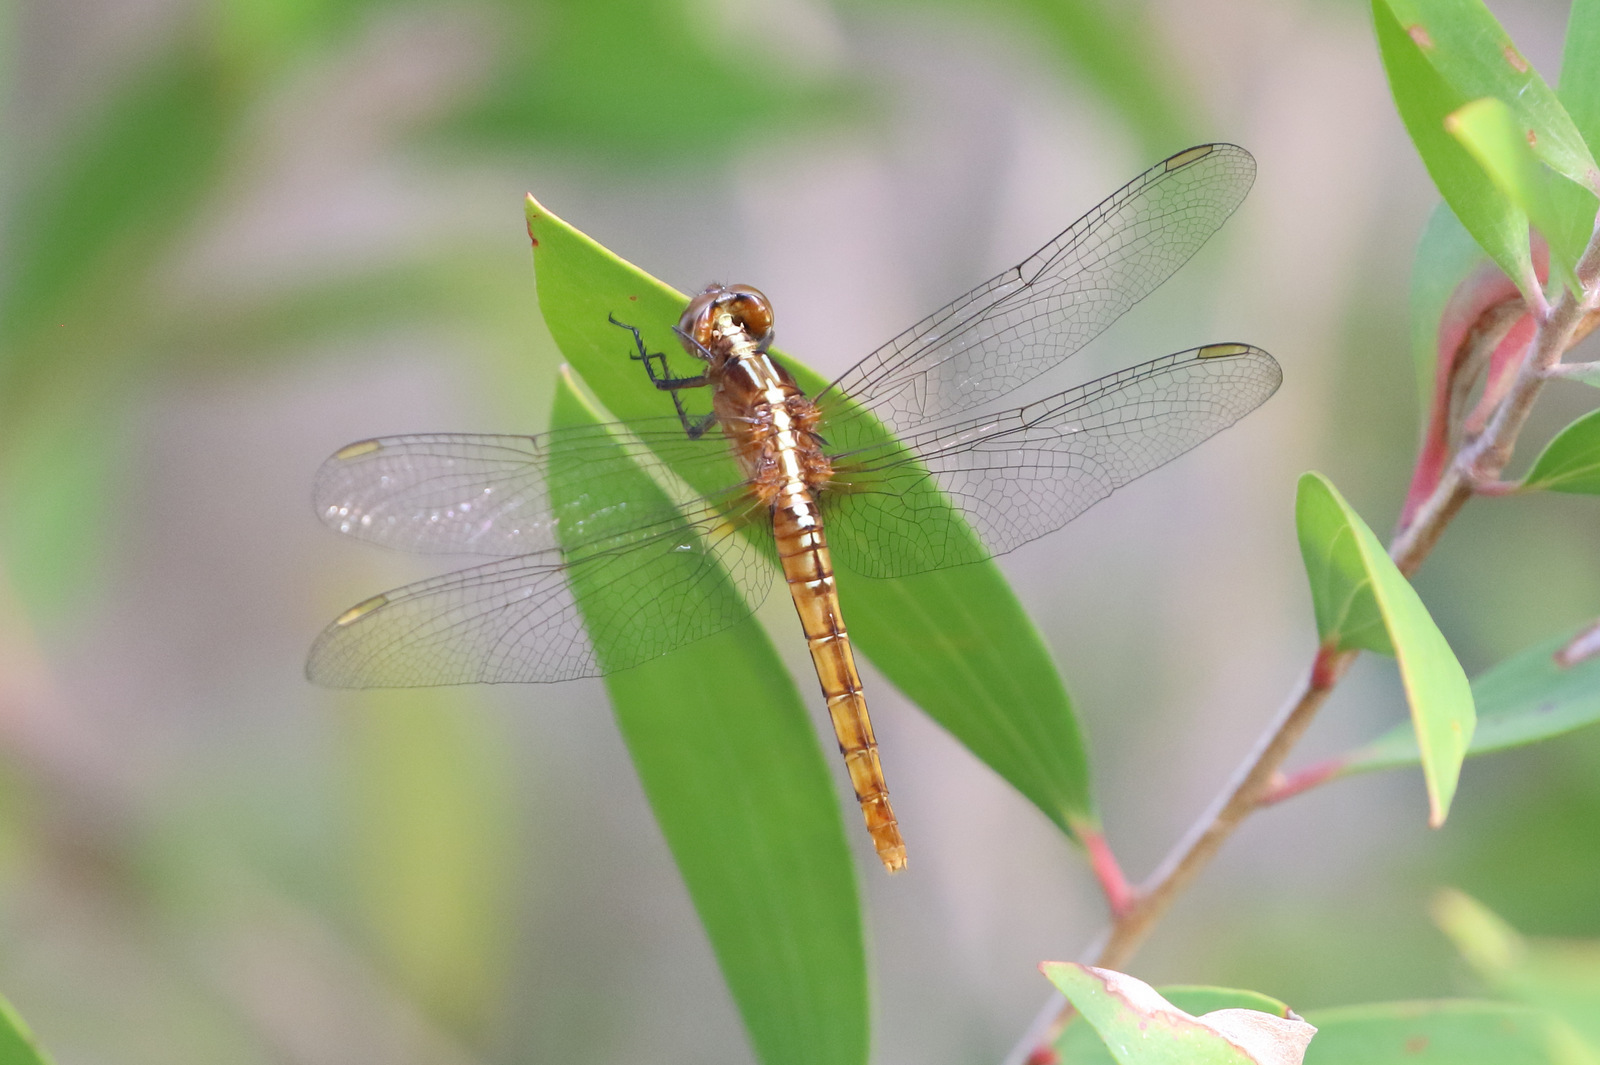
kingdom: Animalia
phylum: Arthropoda
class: Insecta
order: Odonata
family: Libellulidae
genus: Rhodothemis
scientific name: Rhodothemis lieftincki
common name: Red arrow
